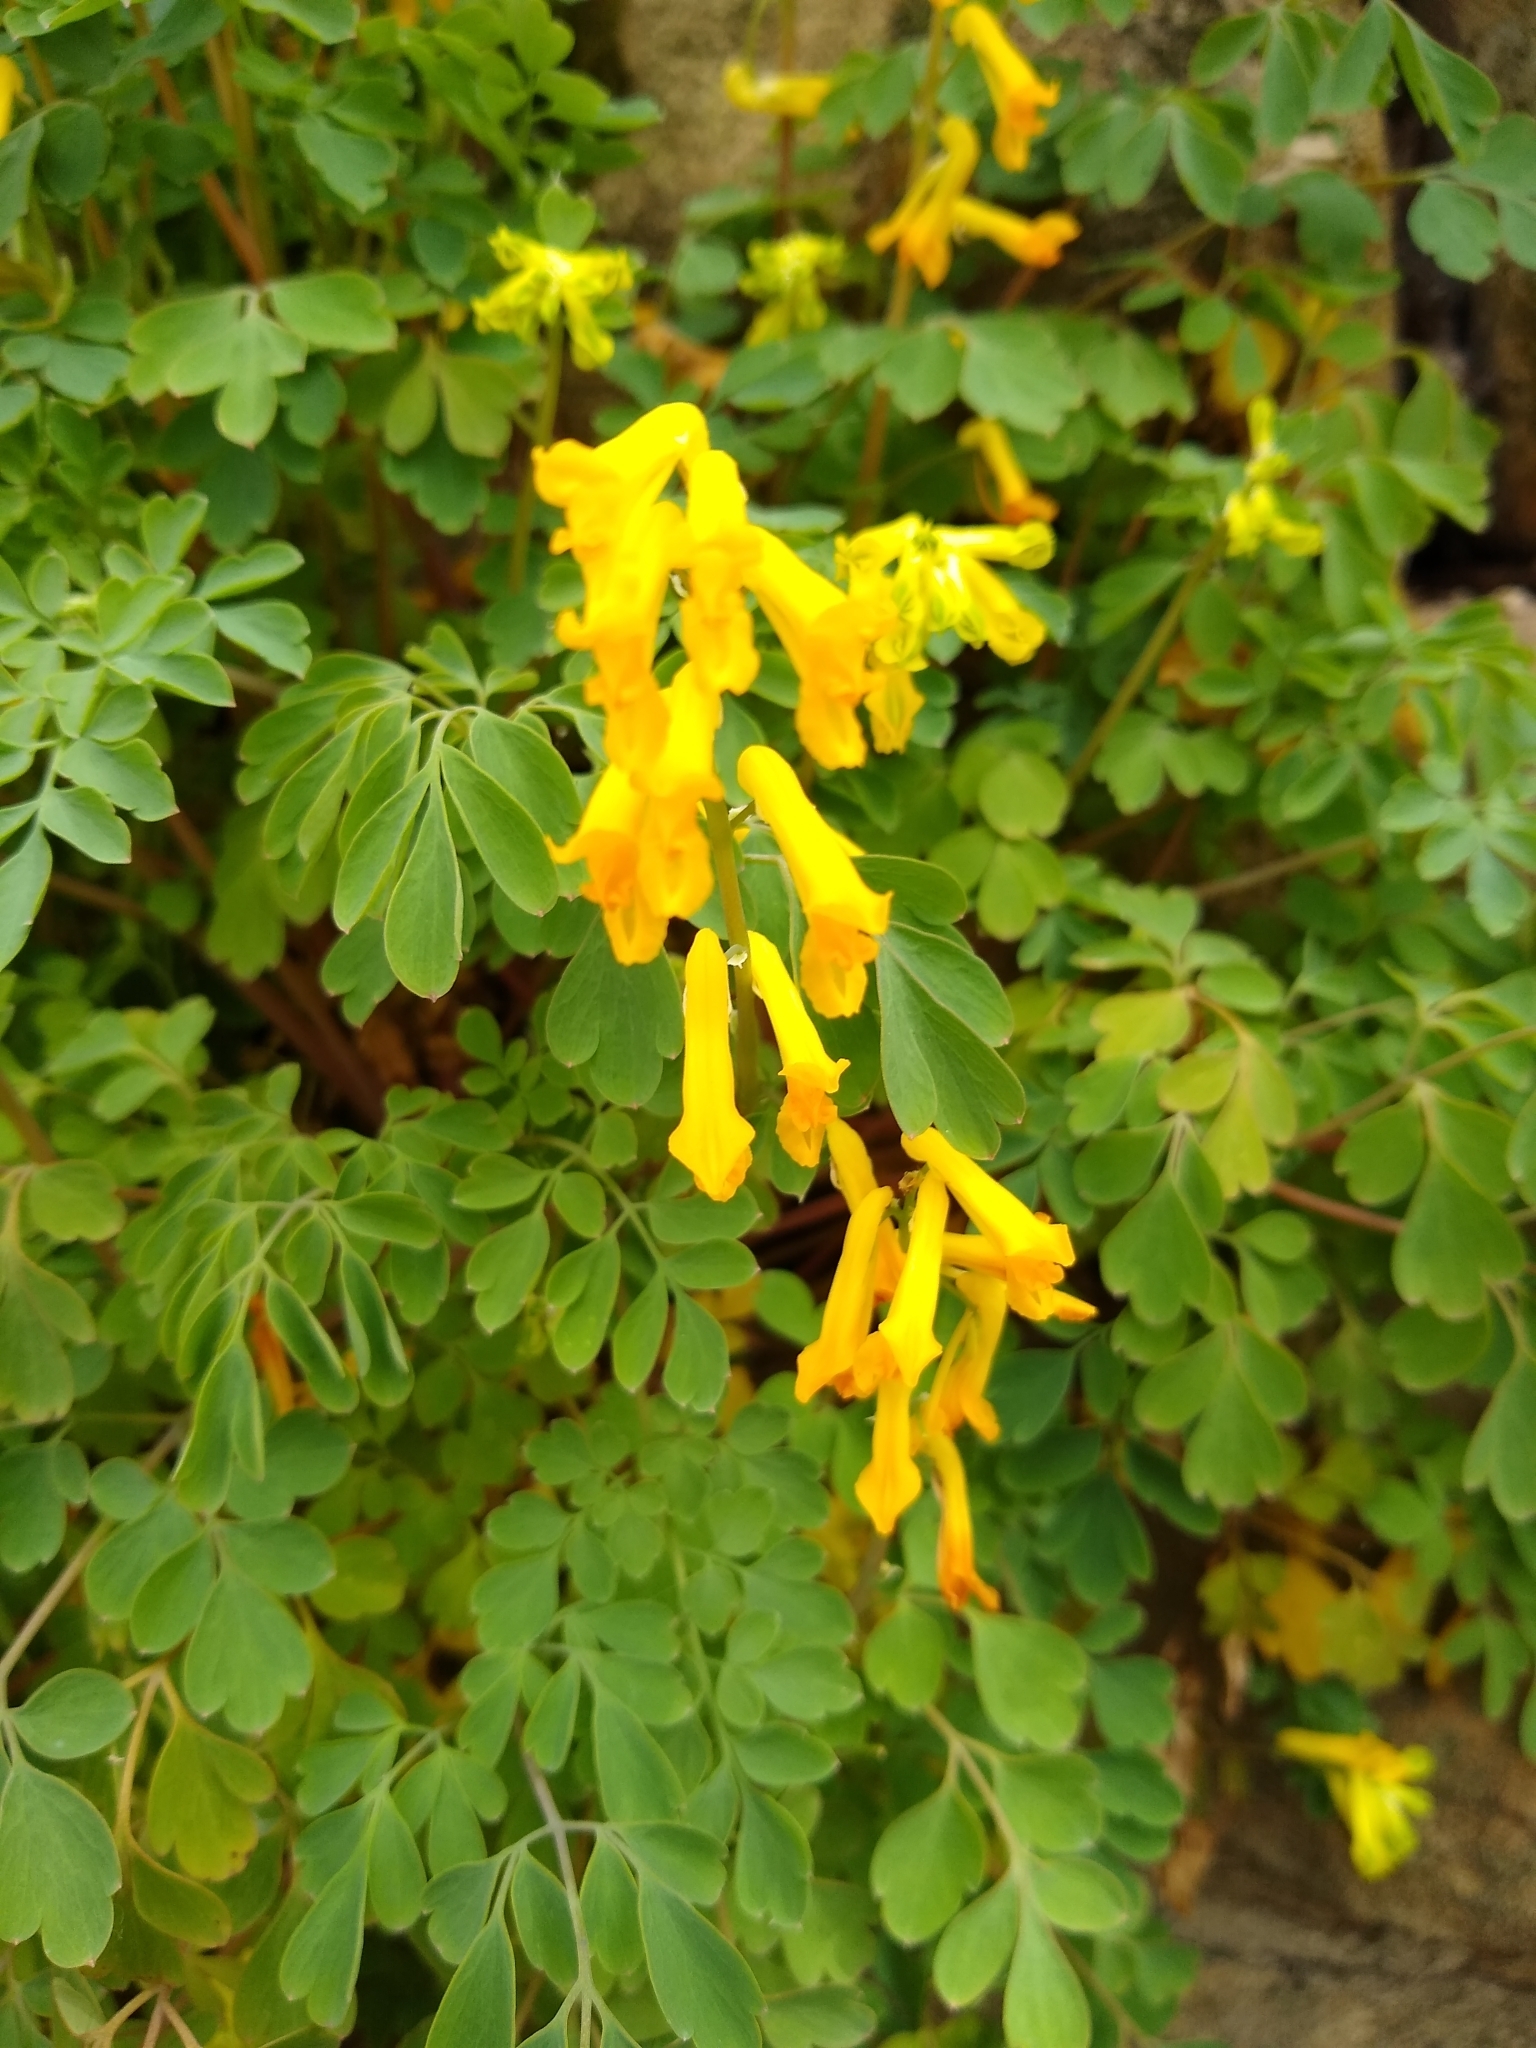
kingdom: Plantae
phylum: Tracheophyta
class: Magnoliopsida
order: Ranunculales
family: Papaveraceae
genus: Pseudofumaria
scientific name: Pseudofumaria lutea
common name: Yellow corydalis
